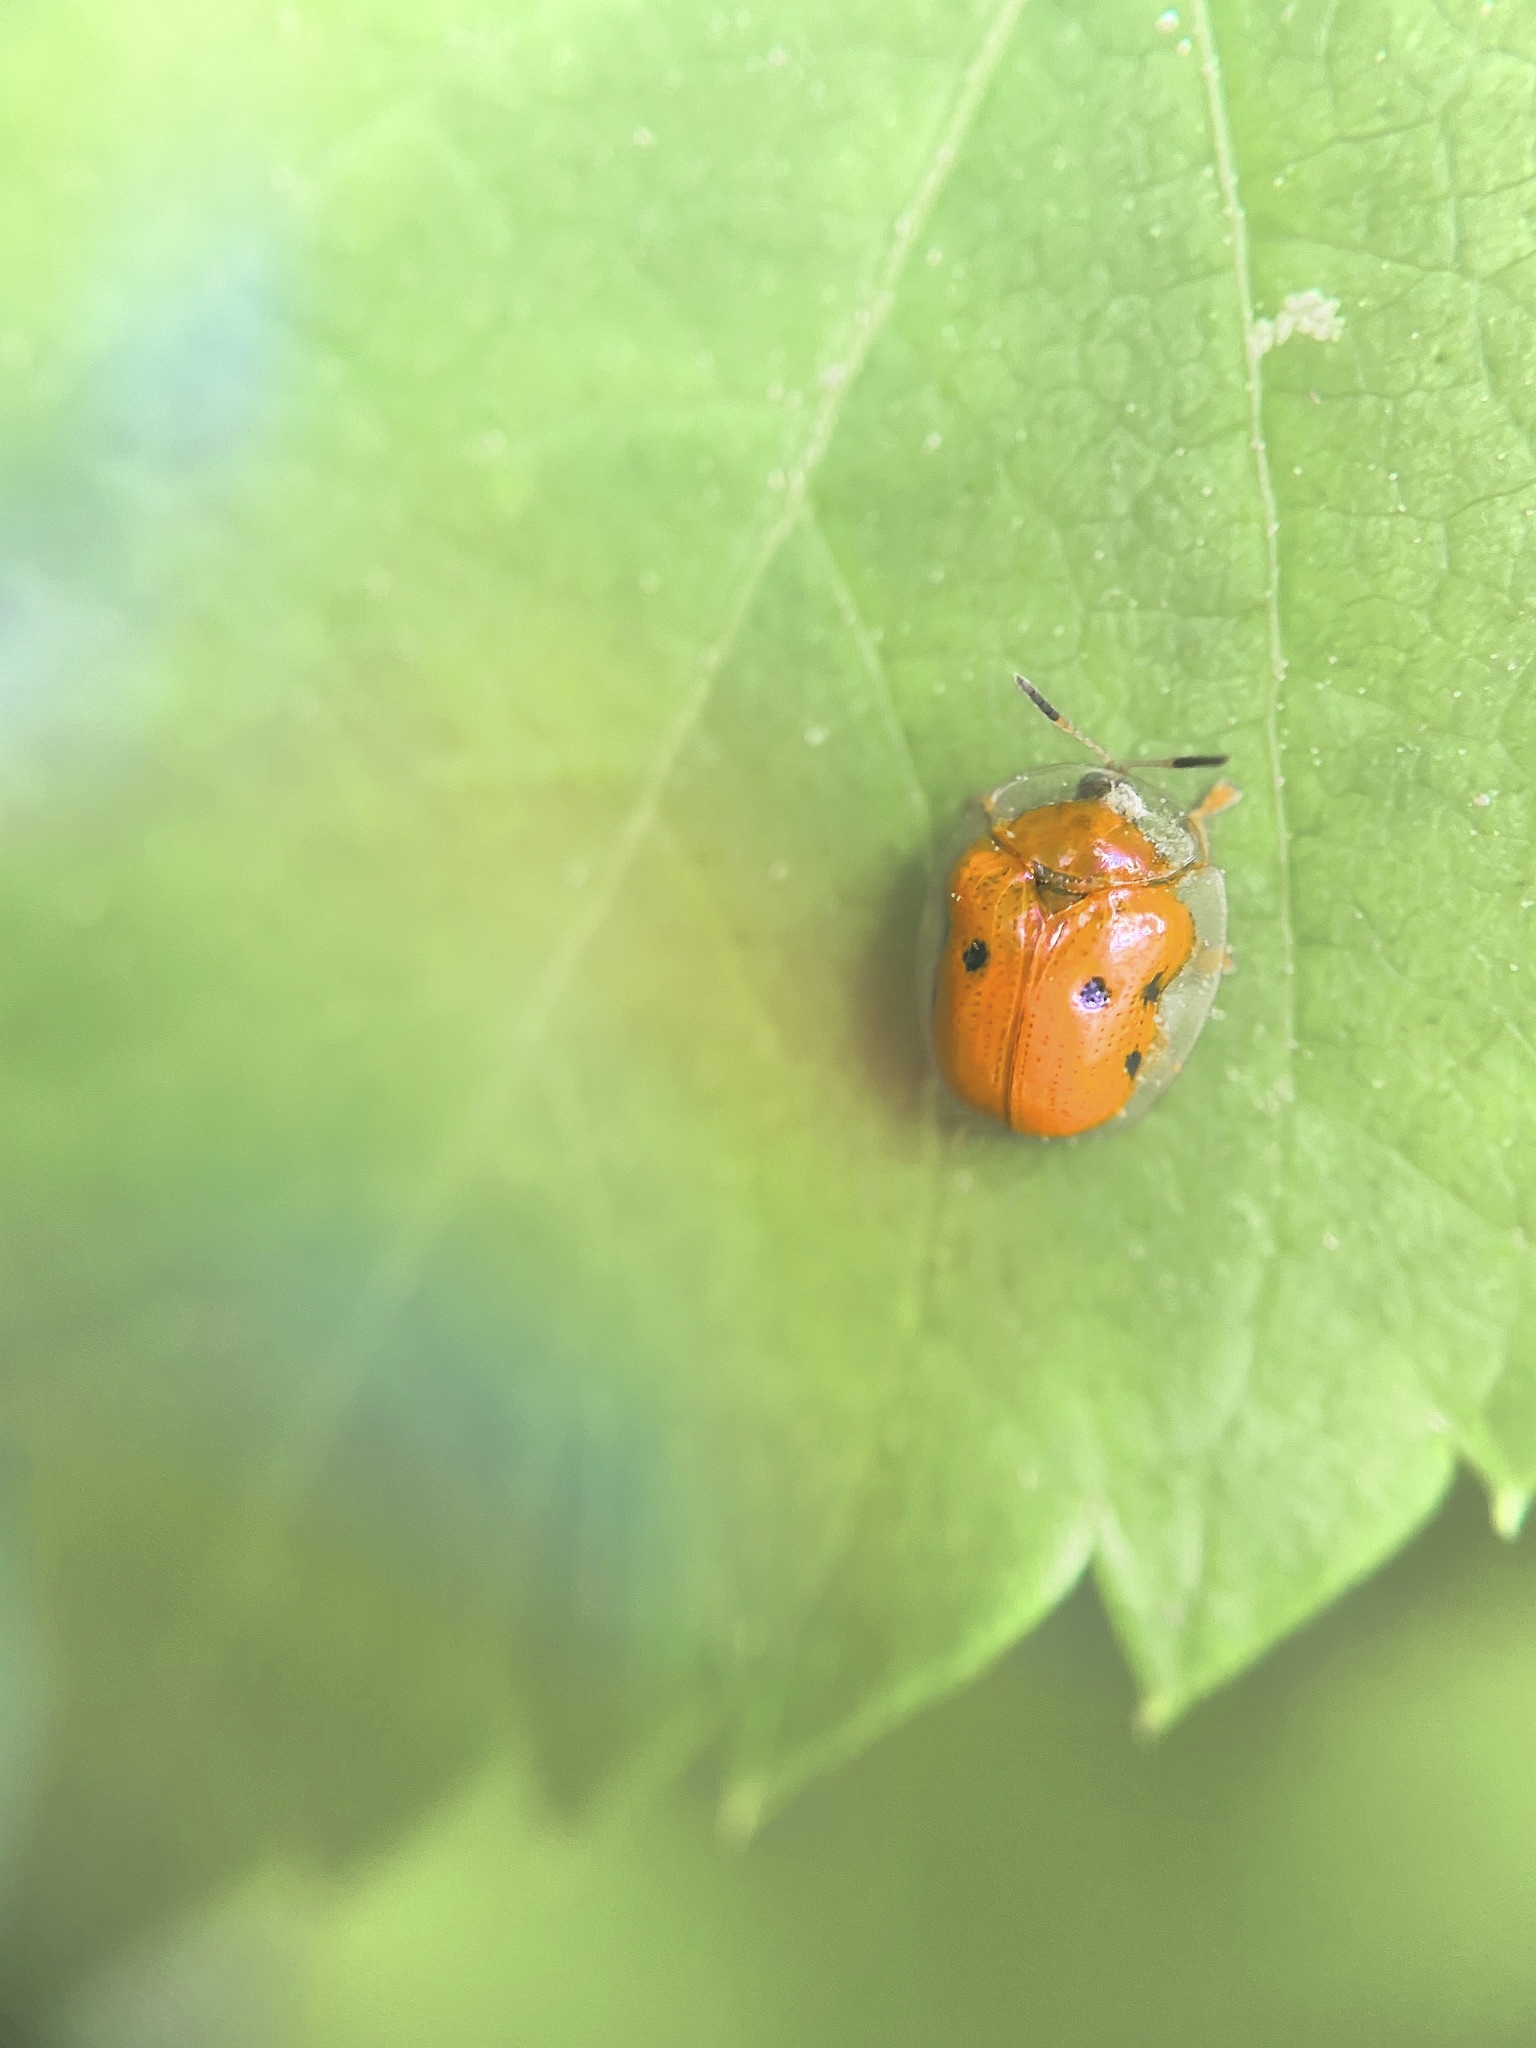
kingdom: Animalia
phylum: Arthropoda
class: Insecta
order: Coleoptera
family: Chrysomelidae
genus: Charidotella
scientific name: Charidotella sexpunctata
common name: Golden tortoise beetle
